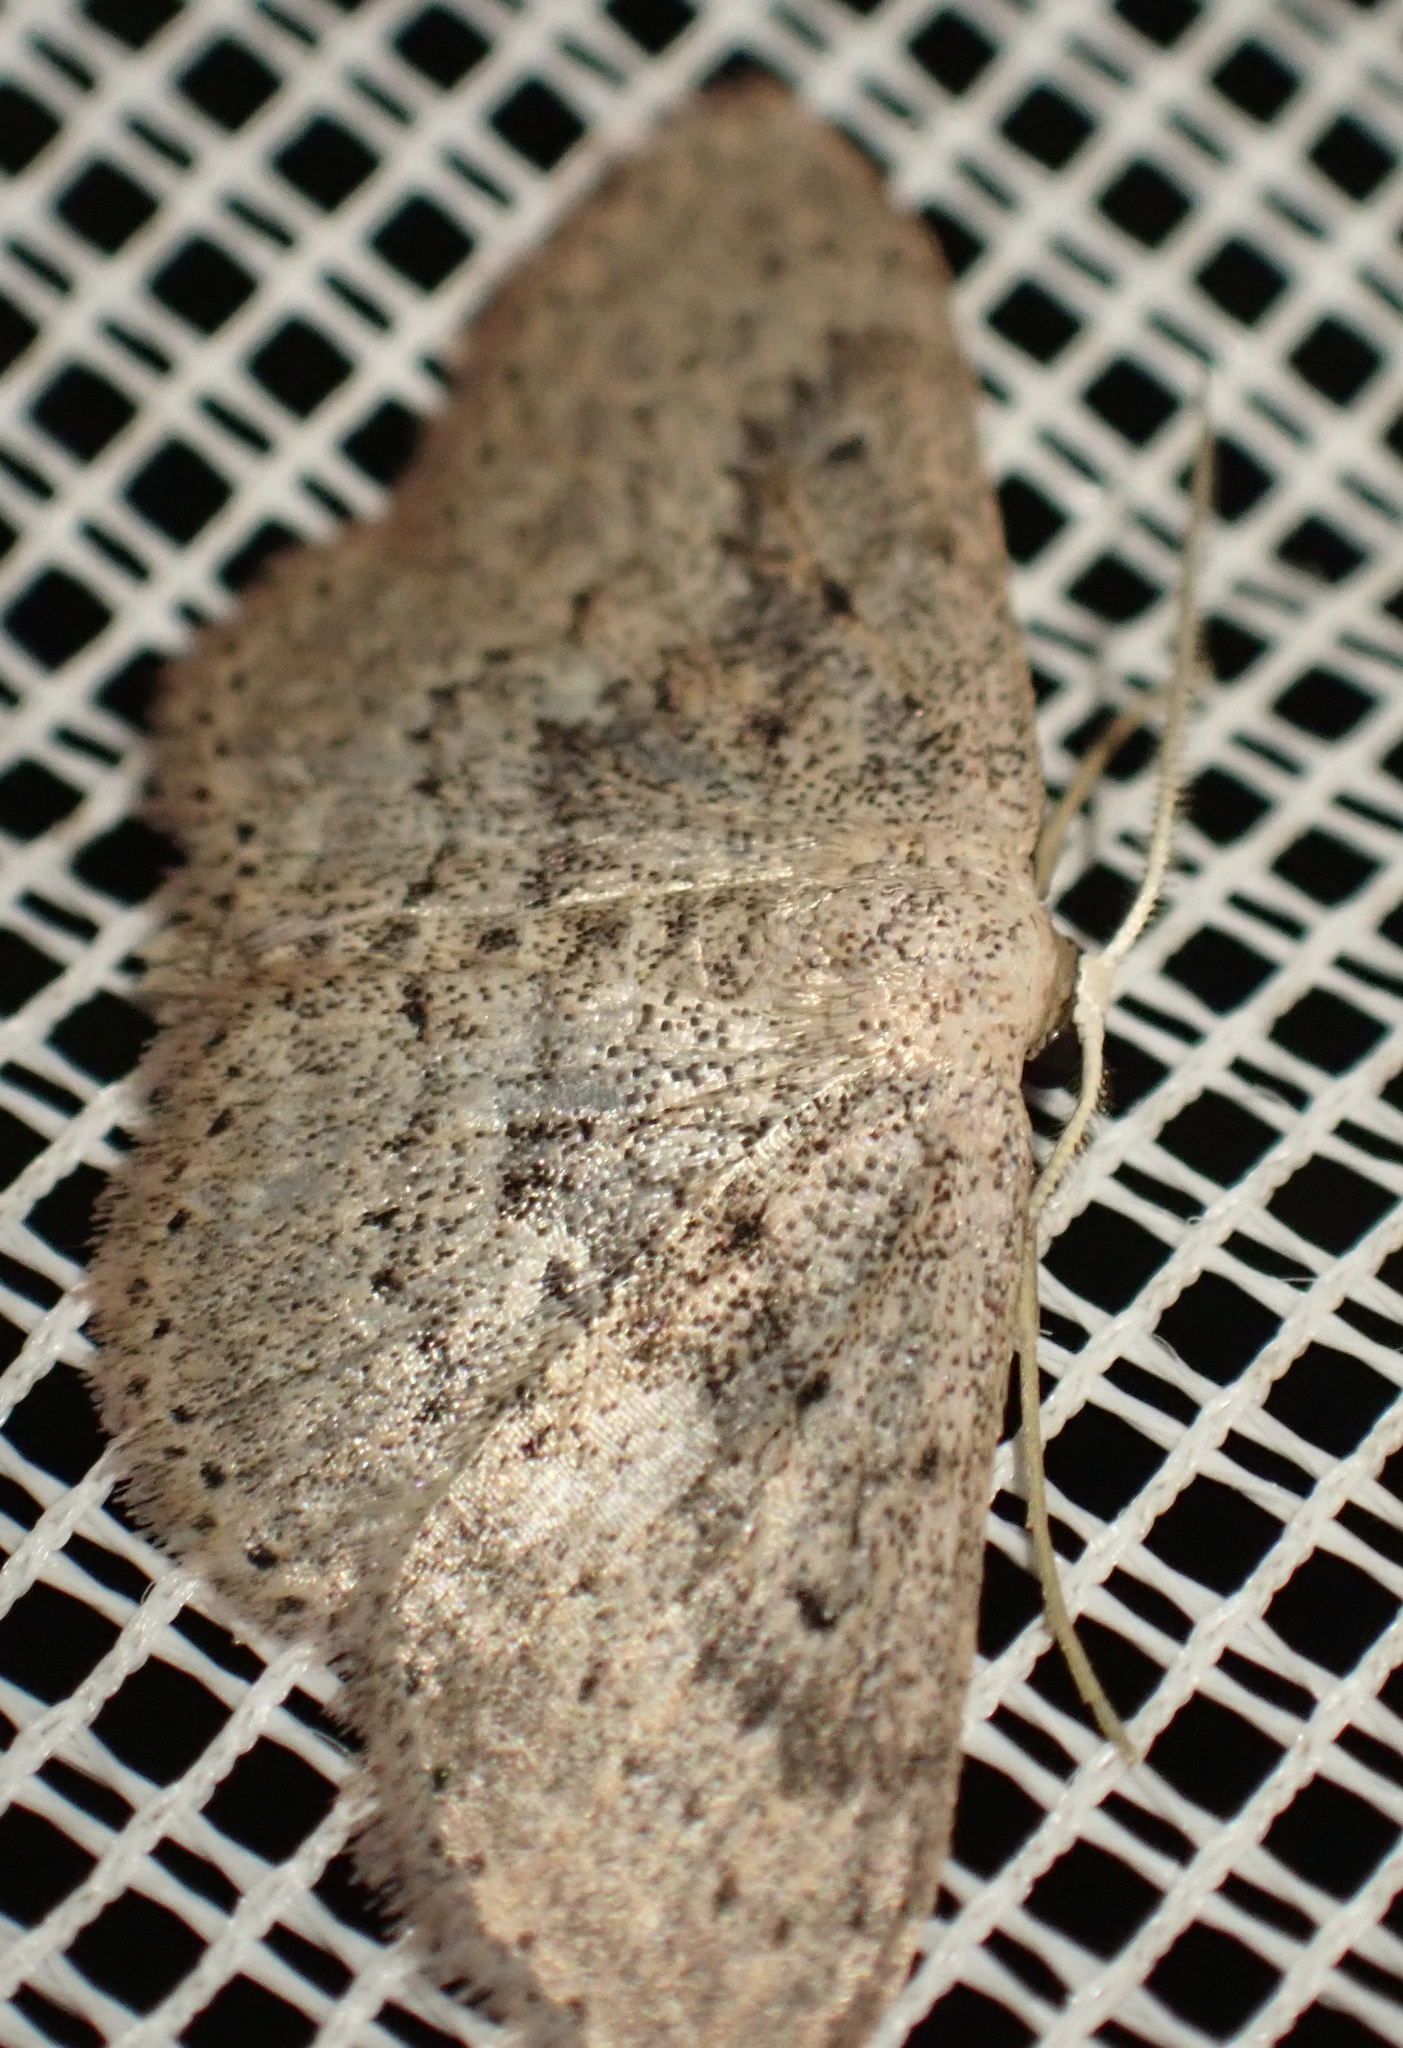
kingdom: Animalia
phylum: Arthropoda
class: Insecta
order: Lepidoptera
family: Geometridae
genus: Scopula
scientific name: Scopula guancharia
